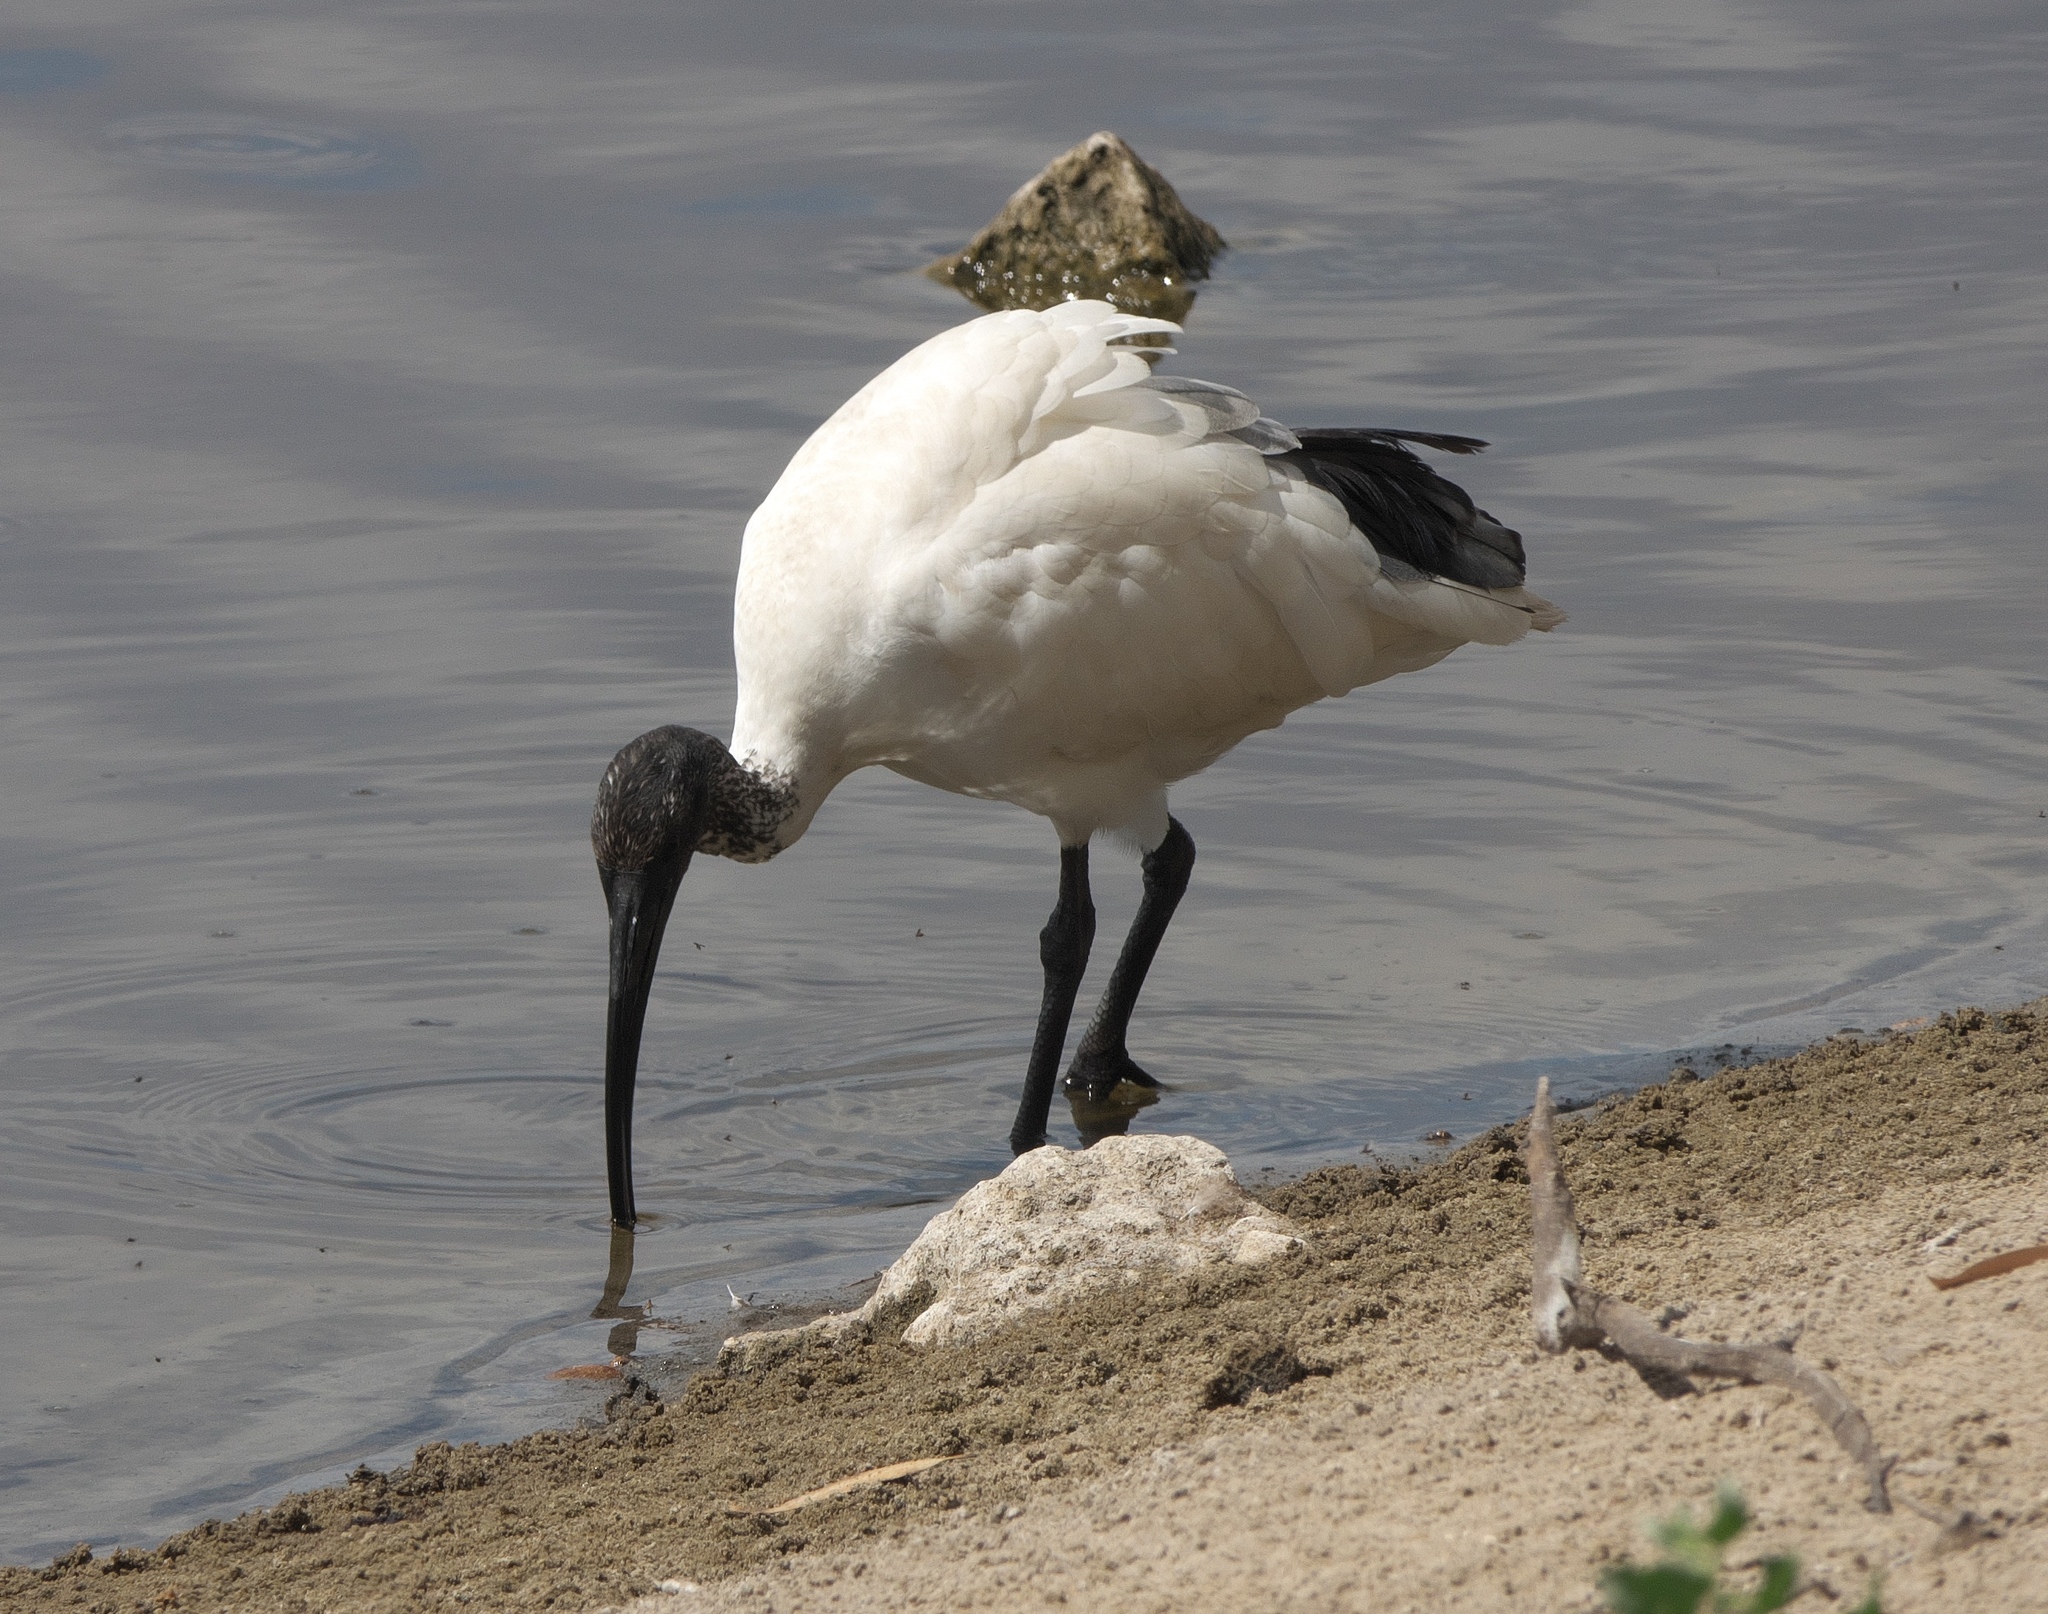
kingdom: Animalia
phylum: Chordata
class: Aves
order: Pelecaniformes
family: Threskiornithidae
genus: Threskiornis
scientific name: Threskiornis molucca
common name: Australian white ibis
